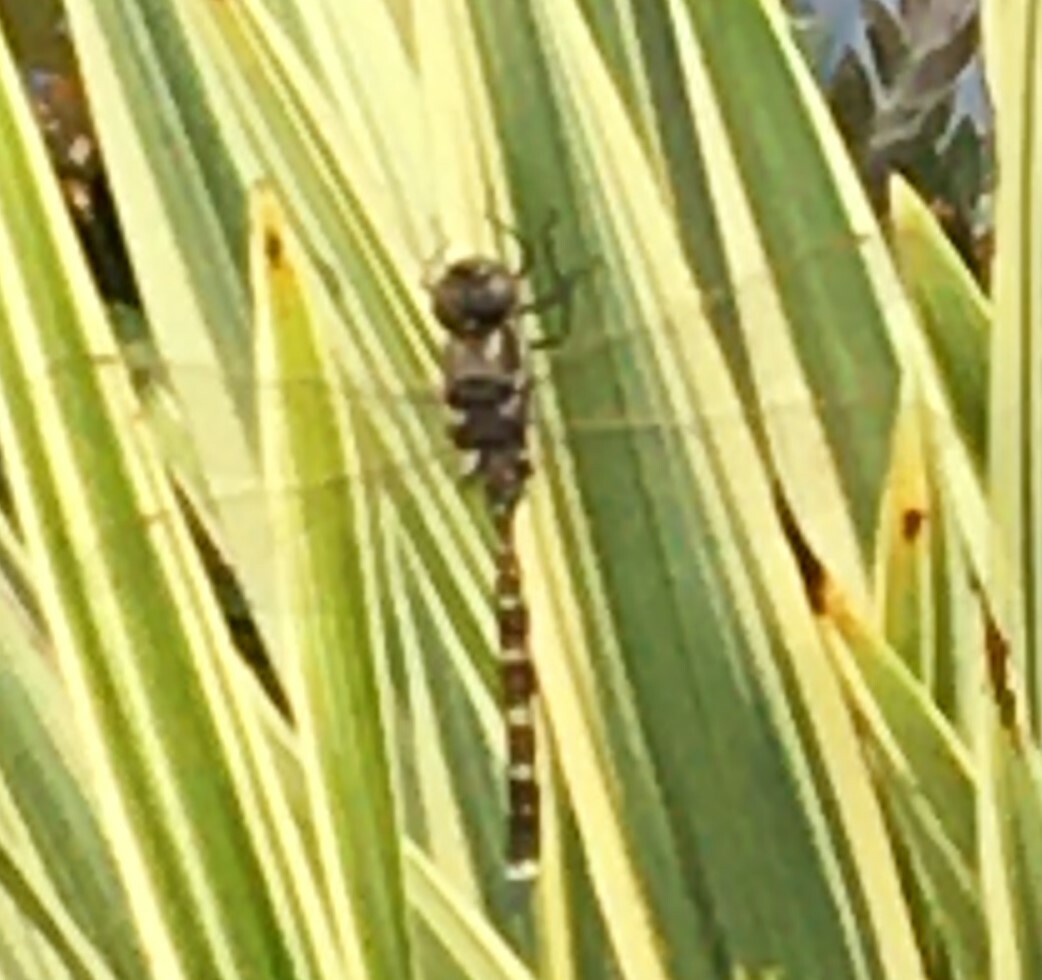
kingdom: Animalia
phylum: Arthropoda
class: Insecta
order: Odonata
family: Aeshnidae
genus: Aeshna
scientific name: Aeshna brevistyla
